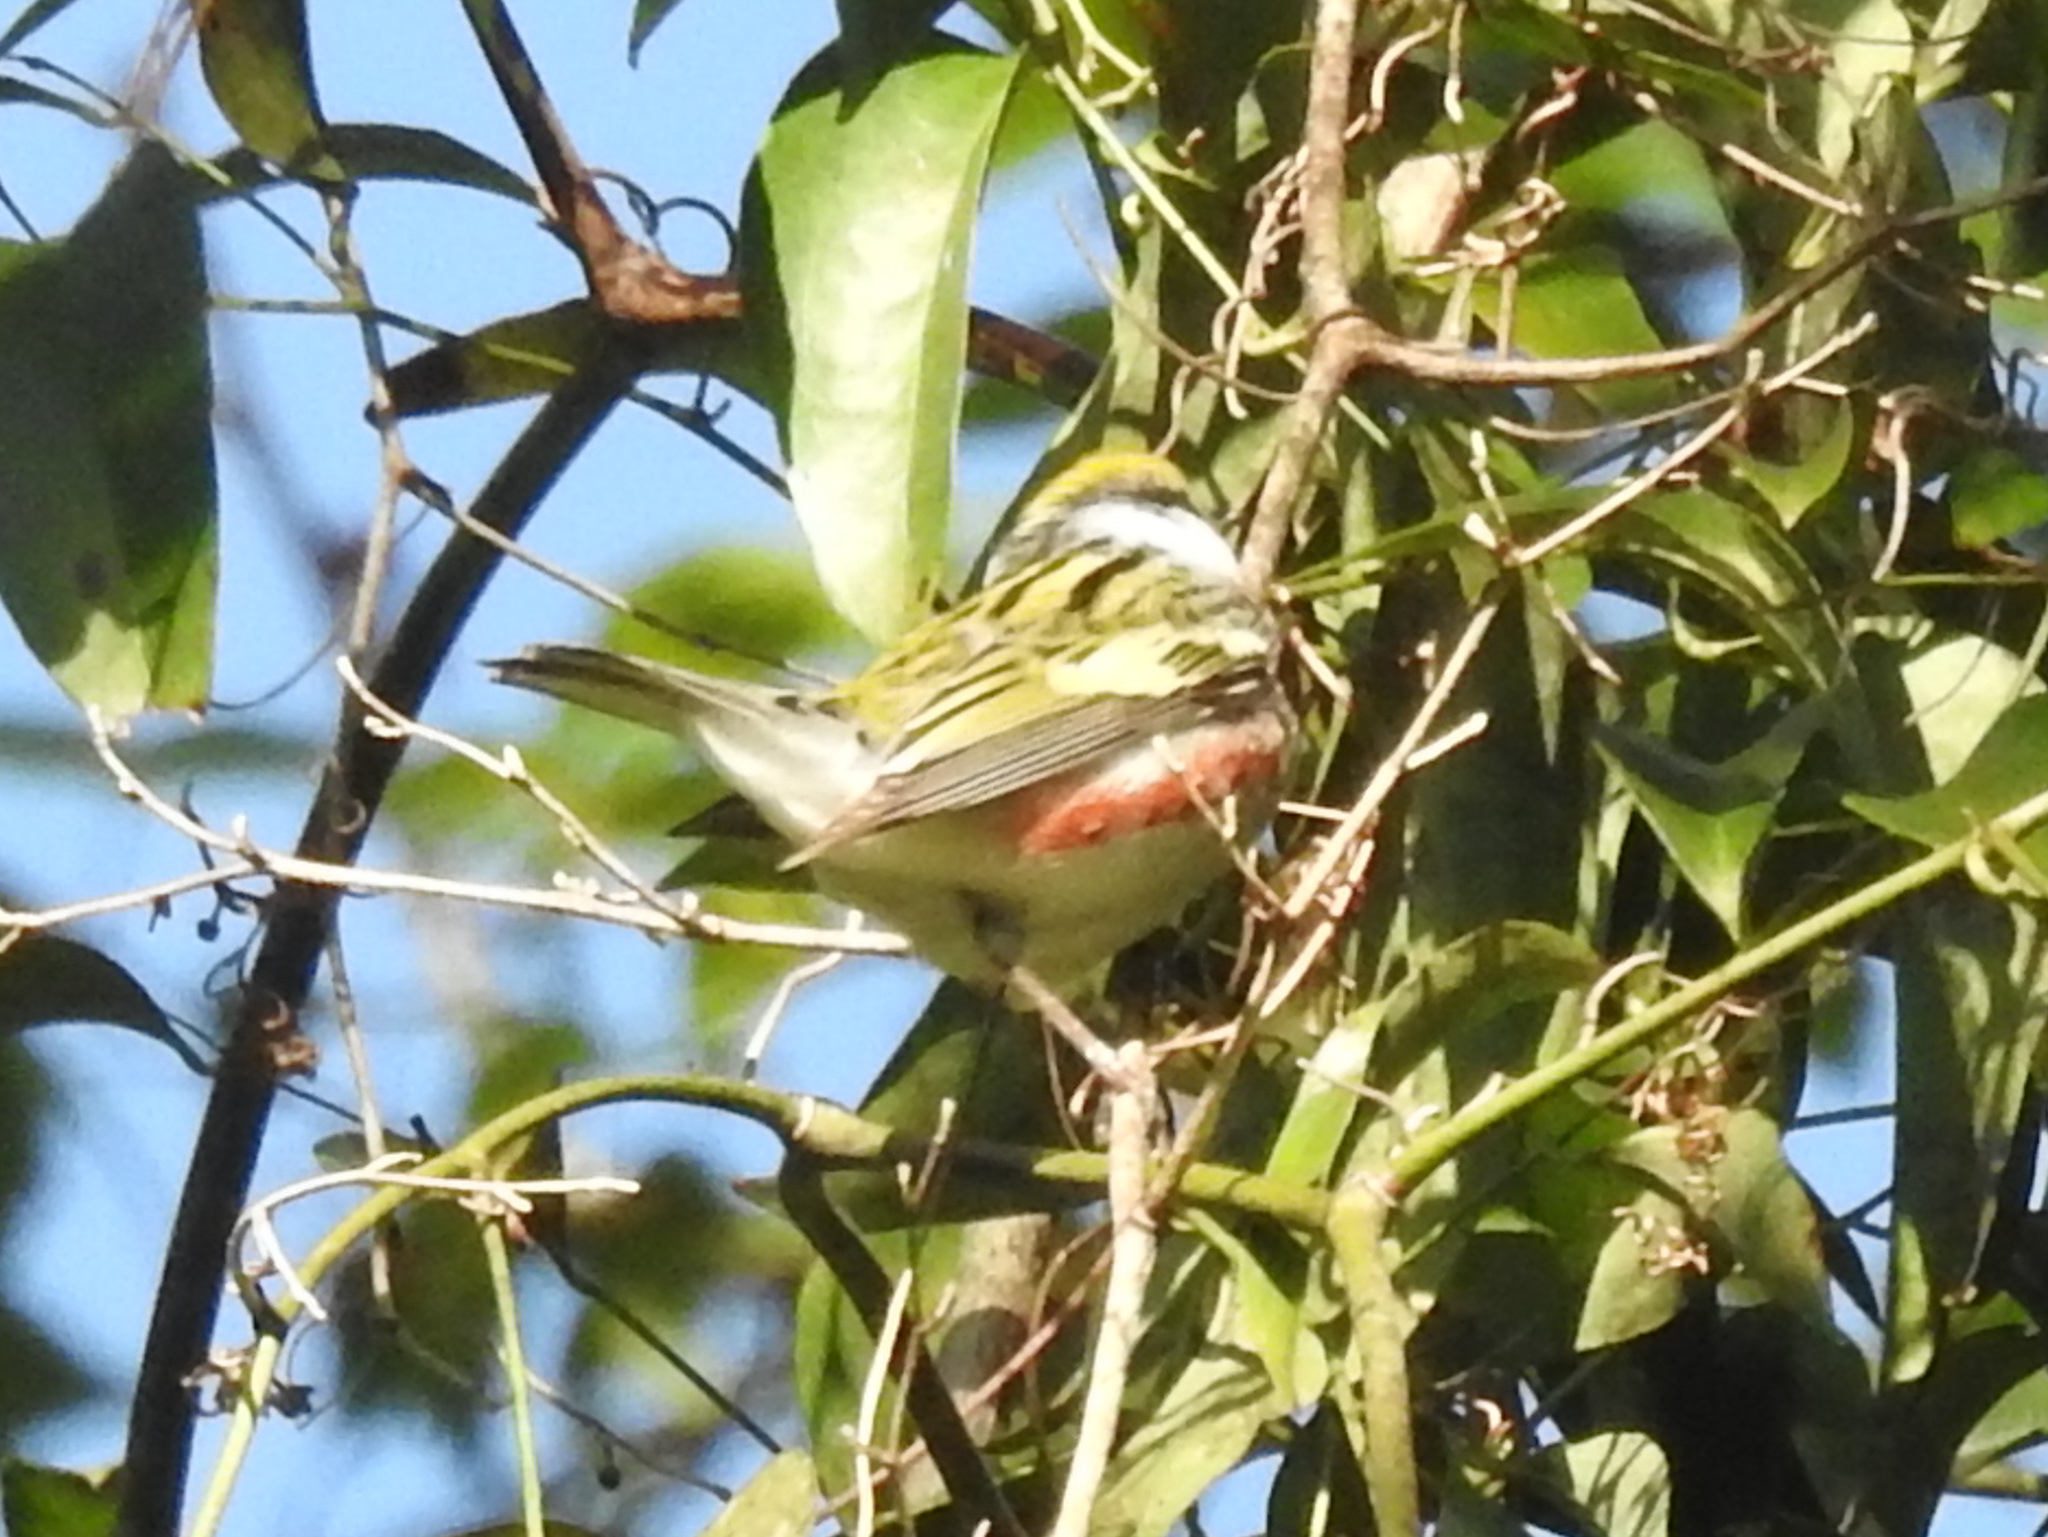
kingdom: Animalia
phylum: Chordata
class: Aves
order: Passeriformes
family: Parulidae
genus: Setophaga
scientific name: Setophaga pensylvanica
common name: Chestnut-sided warbler
